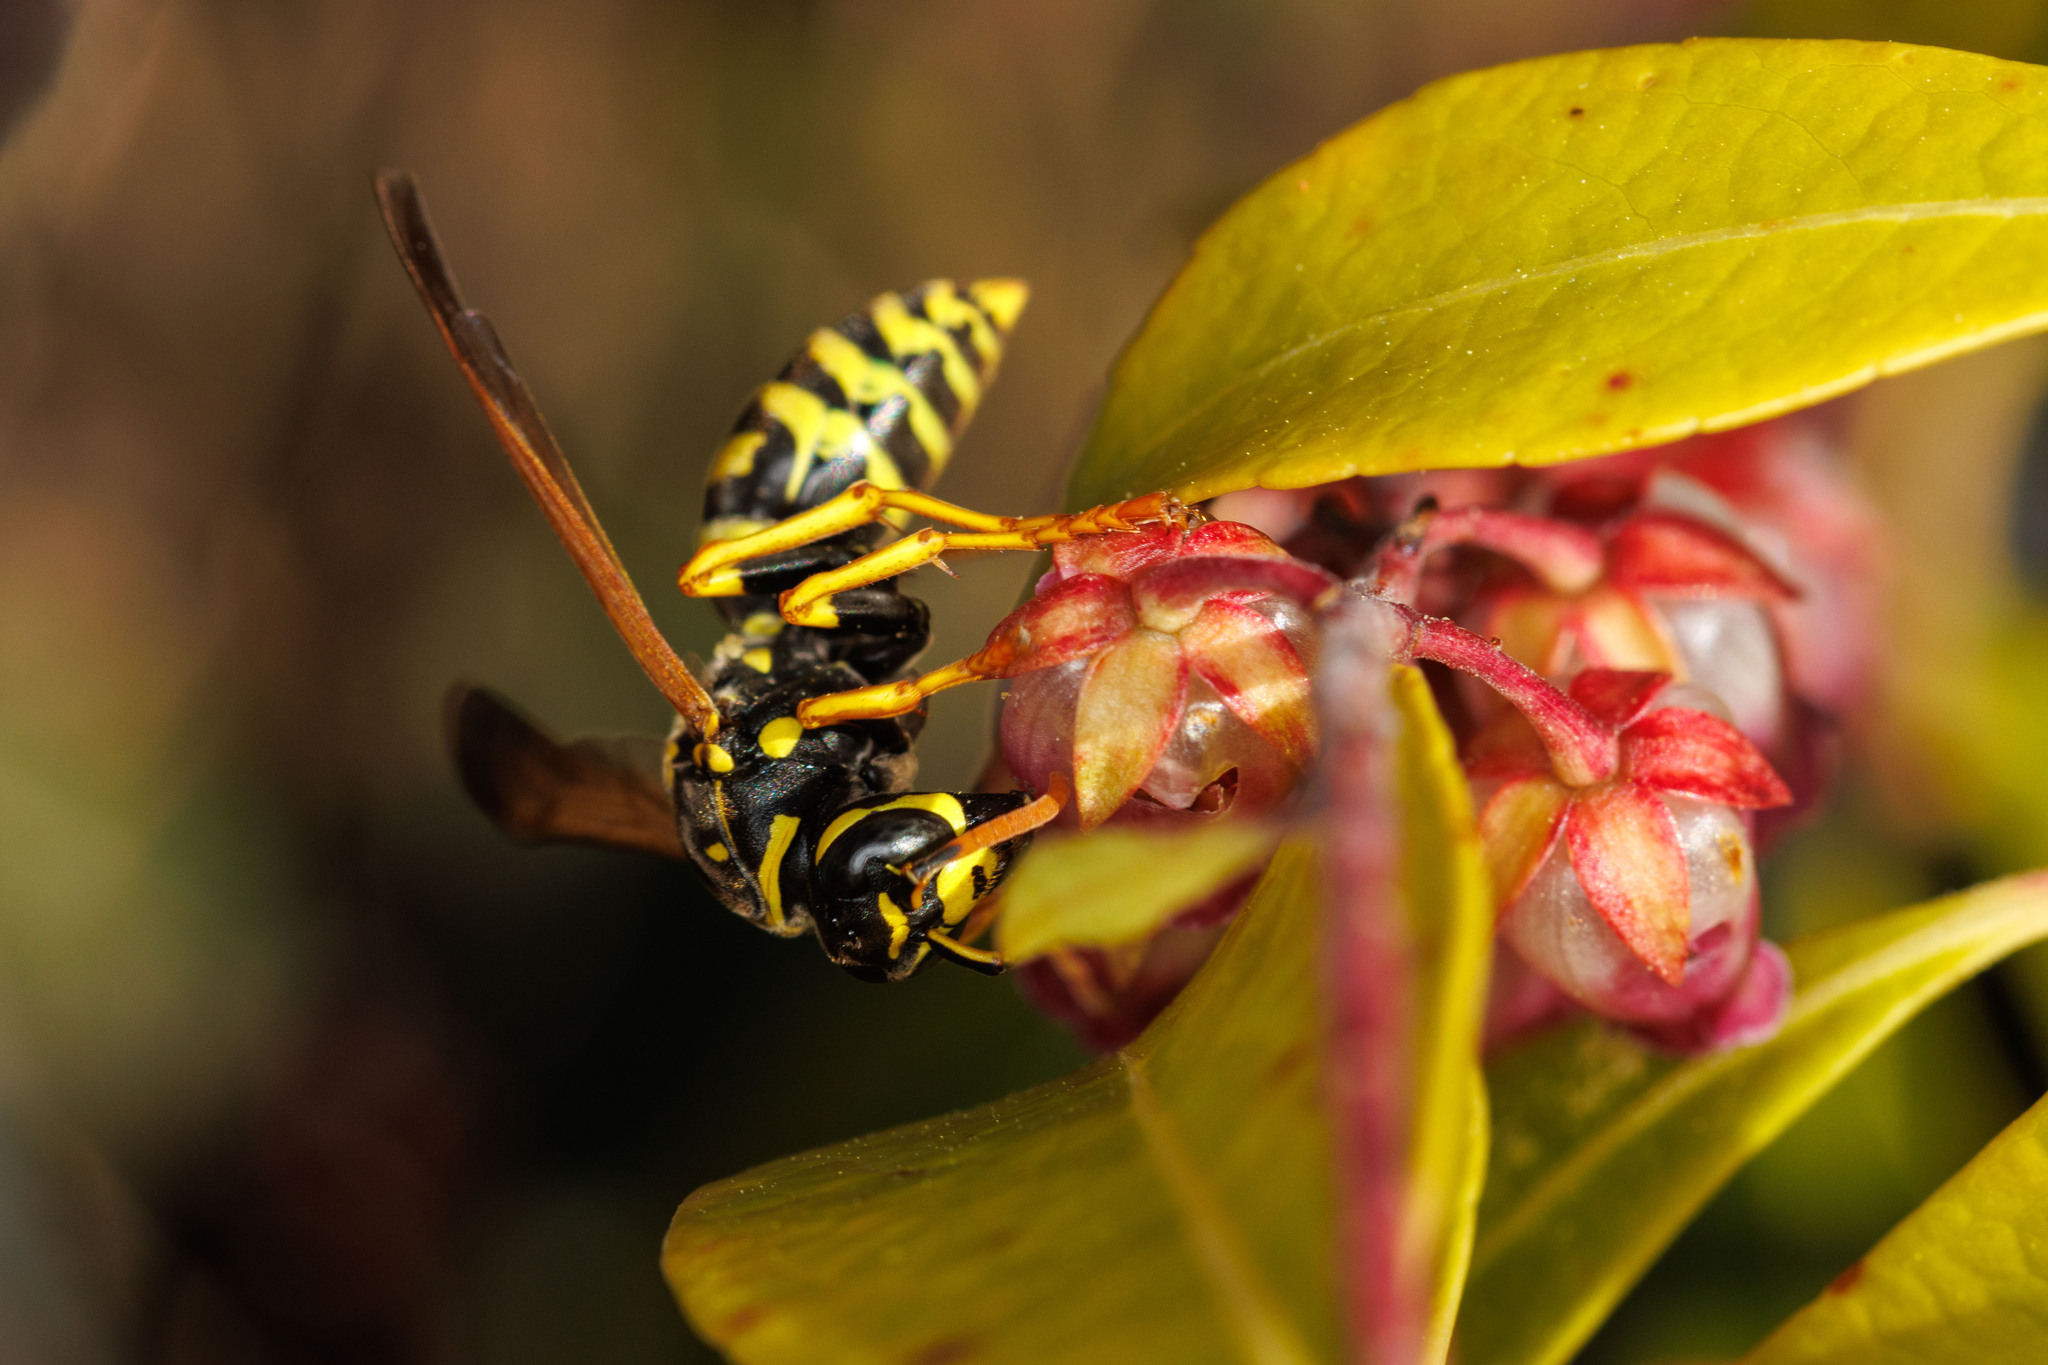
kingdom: Animalia
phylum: Arthropoda
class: Insecta
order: Hymenoptera
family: Eumenidae
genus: Polistes
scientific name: Polistes dominula
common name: Paper wasp
